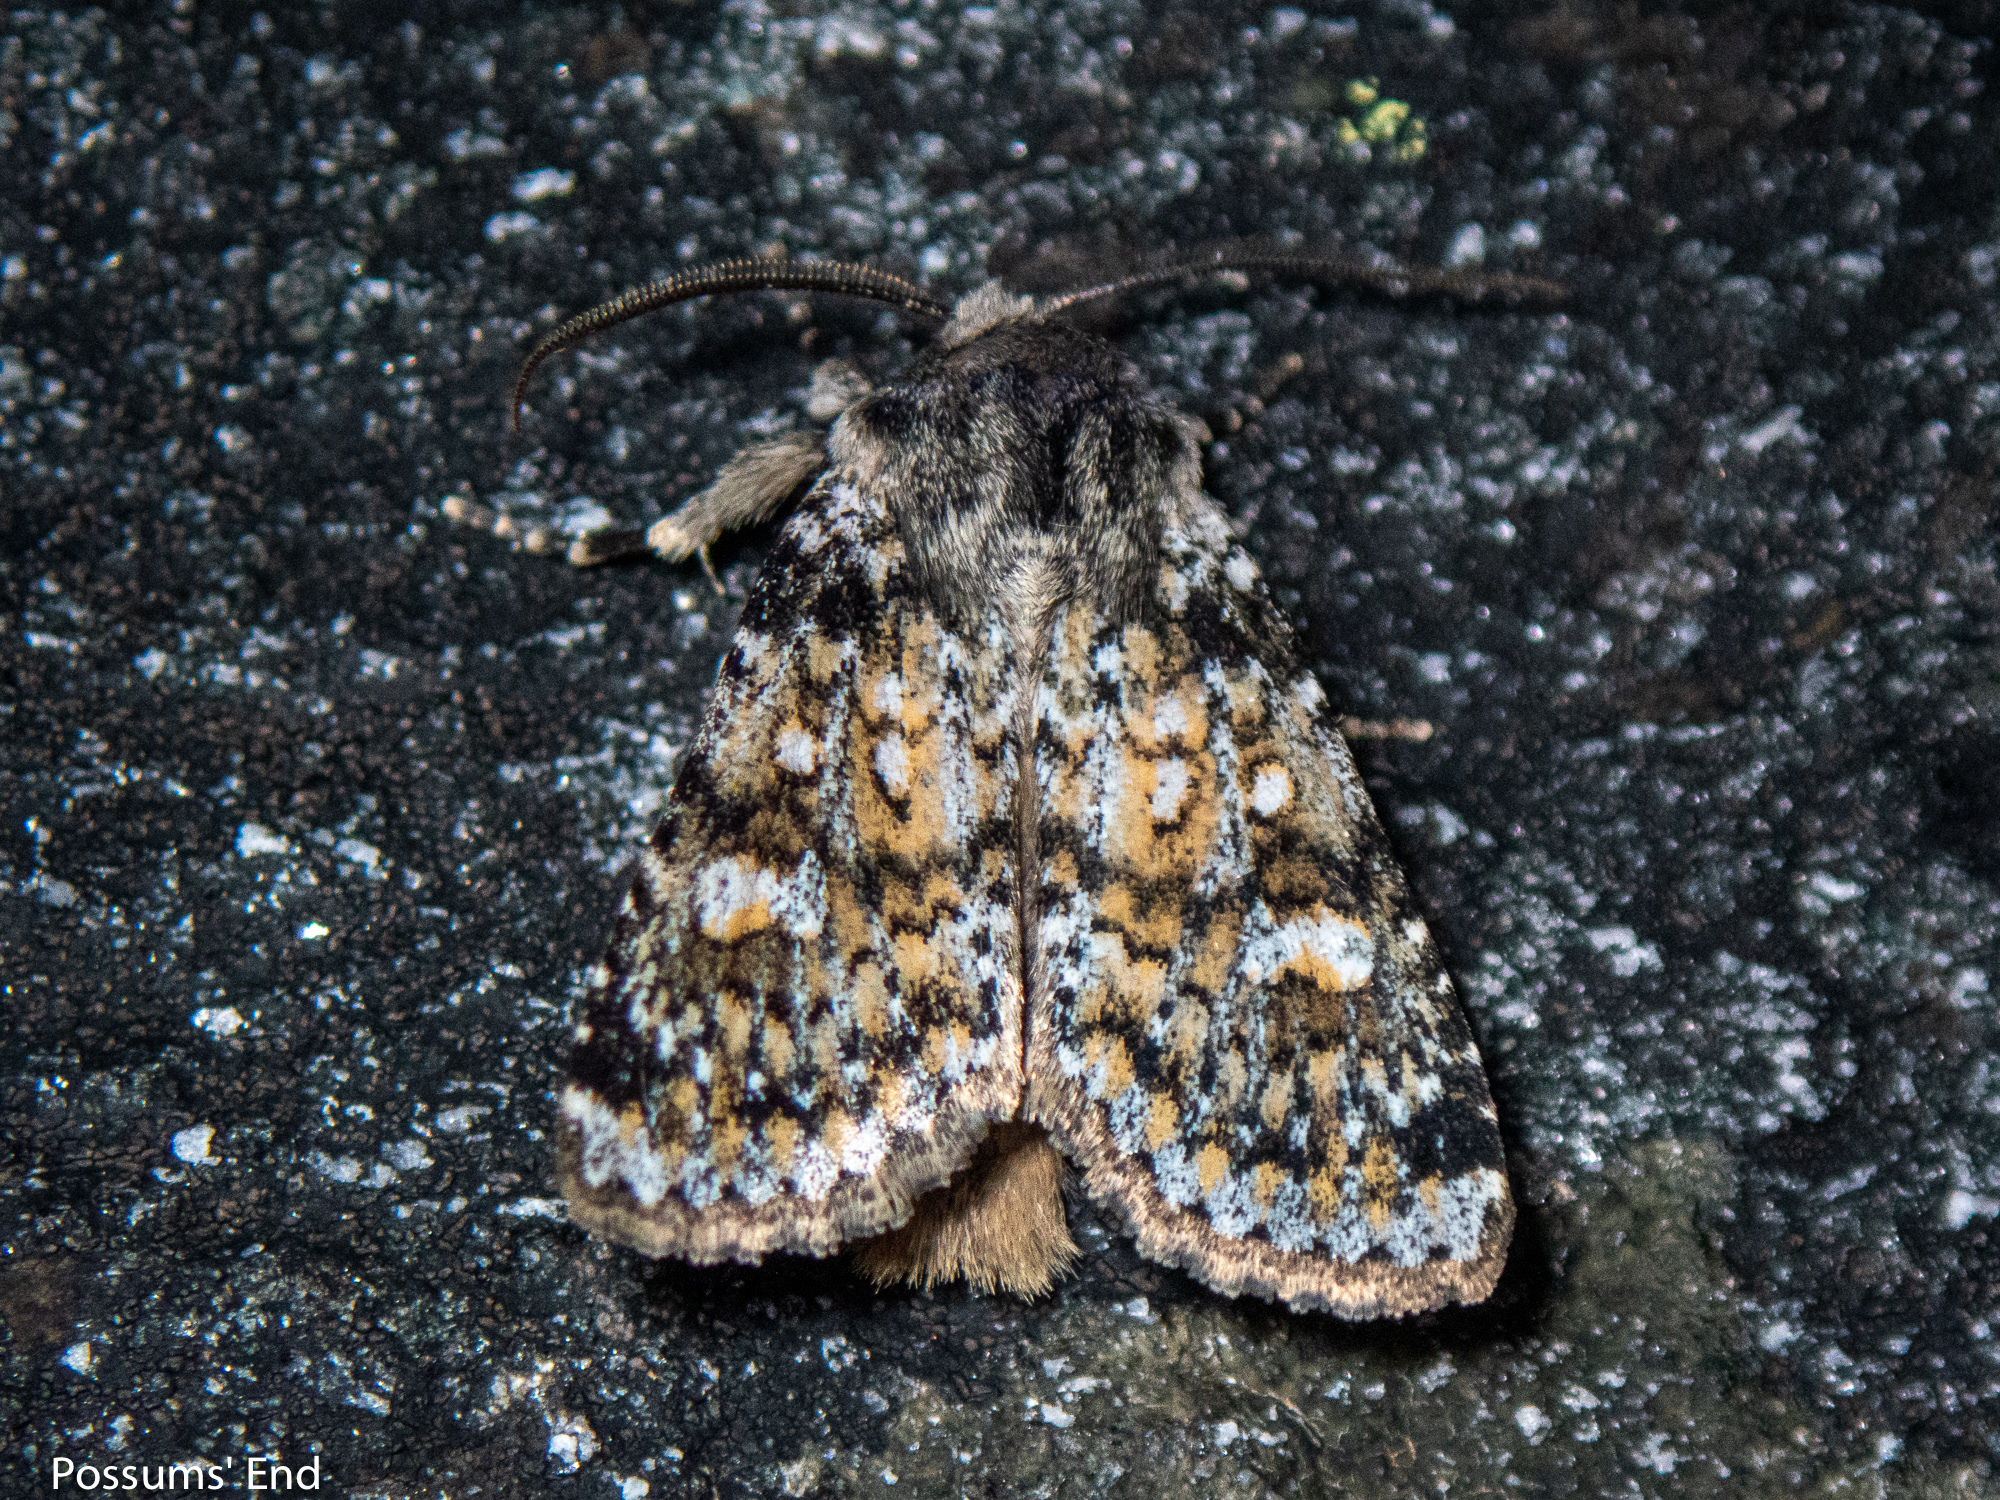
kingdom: Animalia
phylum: Arthropoda
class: Insecta
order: Lepidoptera
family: Noctuidae
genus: Ichneutica
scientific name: Ichneutica
